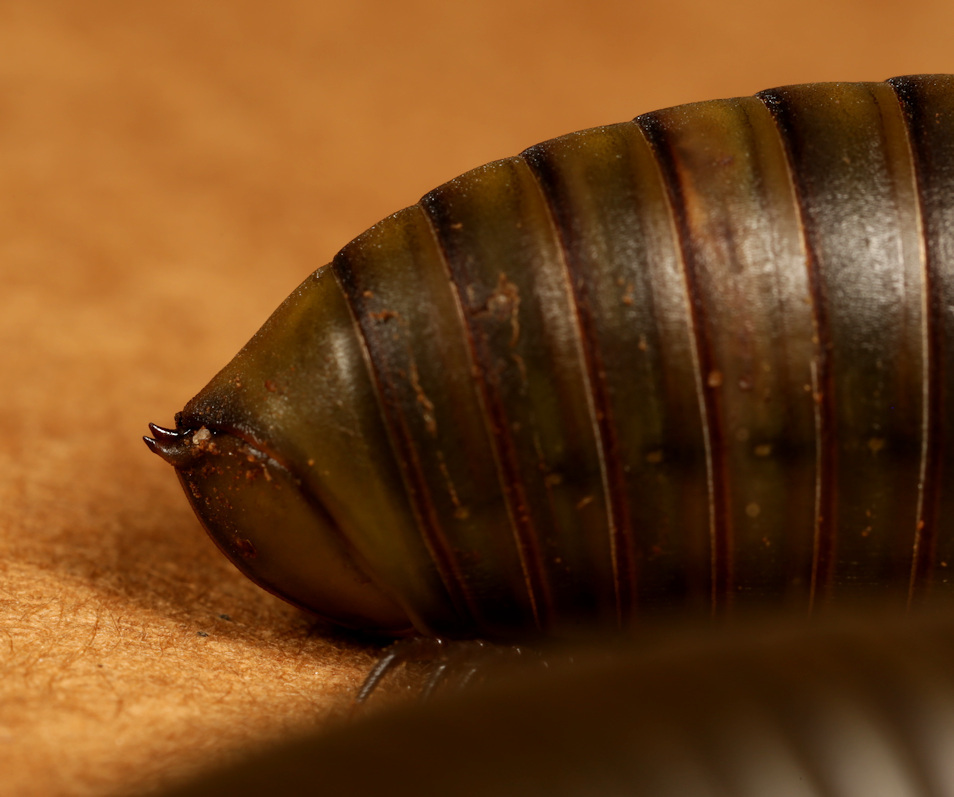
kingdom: Animalia
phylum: Arthropoda
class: Diplopoda
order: Spirostreptida
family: Odontopygidae
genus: Spinotarsus
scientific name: Spinotarsus colosseus
